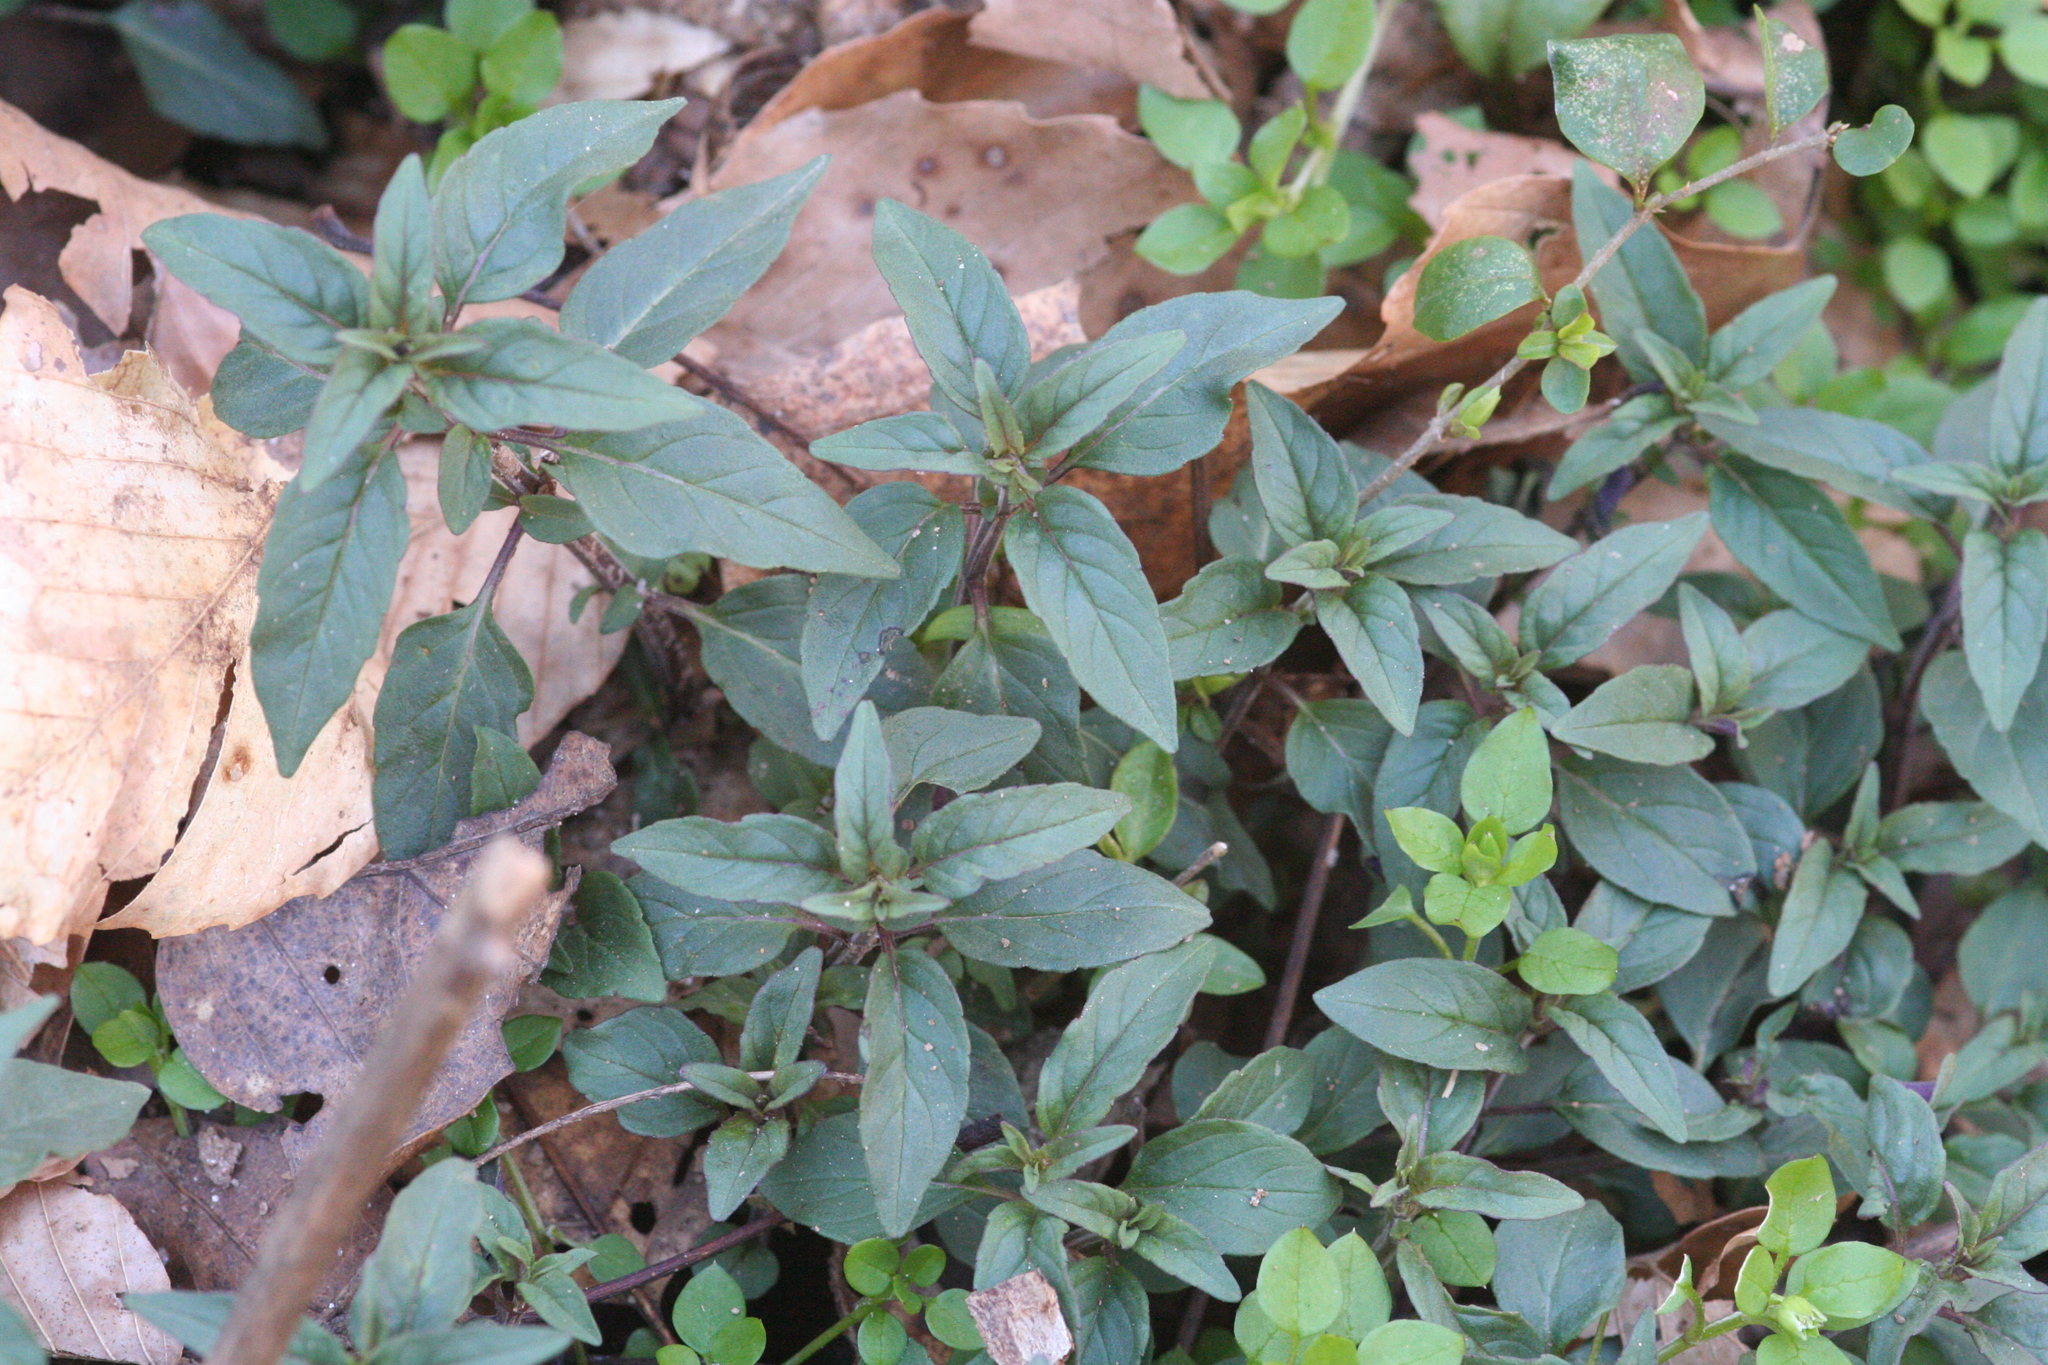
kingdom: Plantae
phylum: Tracheophyta
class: Magnoliopsida
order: Lamiales
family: Lamiaceae
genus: Pycnanthemum
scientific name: Pycnanthemum incanum
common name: Hoary mountain-mint
